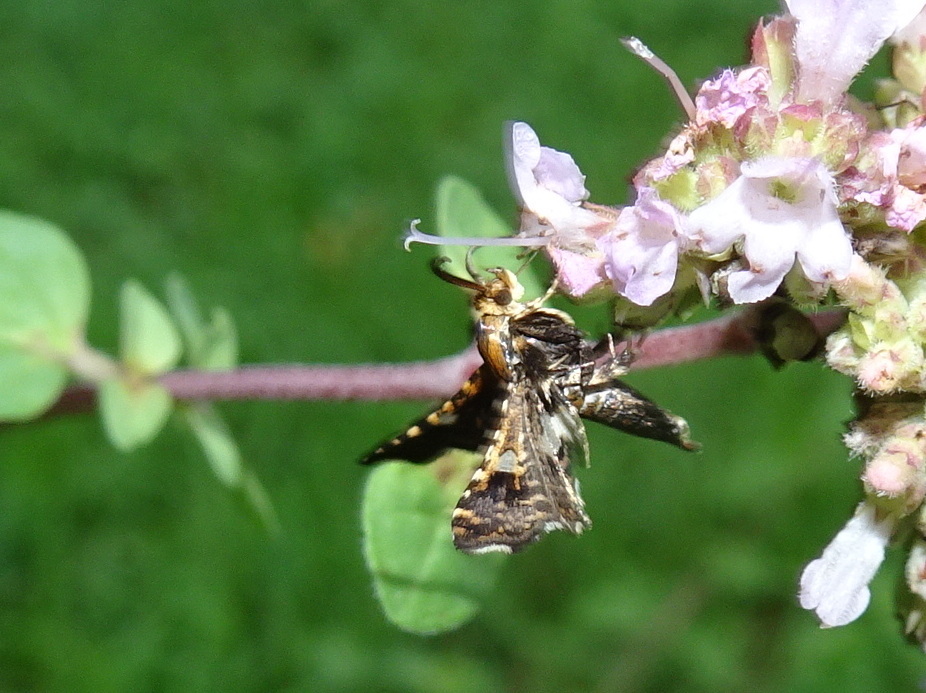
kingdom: Animalia
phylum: Arthropoda
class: Insecta
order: Lepidoptera
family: Thyrididae
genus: Thyris
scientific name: Thyris maculata
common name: Spotted thyris moth
